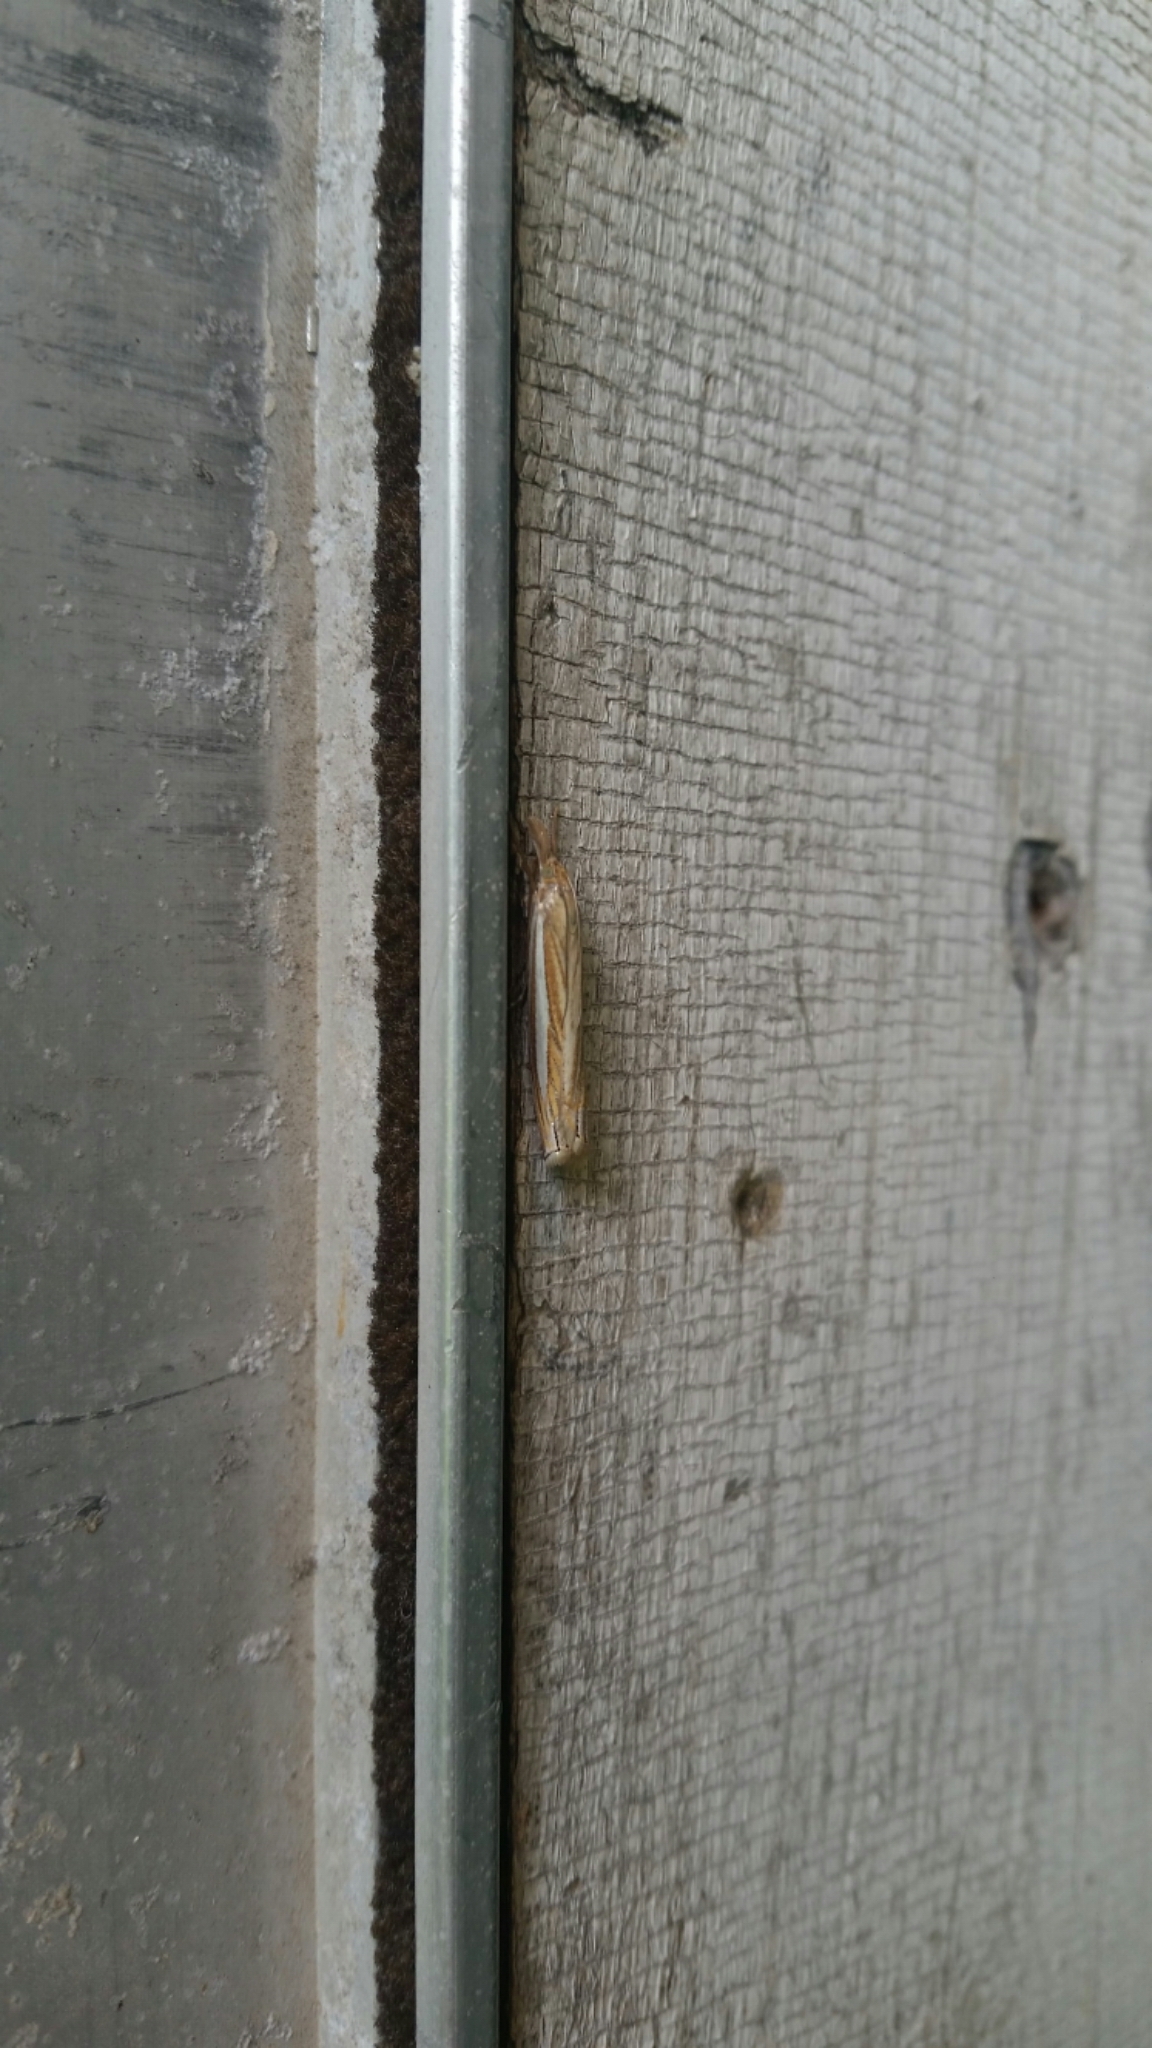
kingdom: Animalia
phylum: Arthropoda
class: Insecta
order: Lepidoptera
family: Crambidae
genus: Crambus
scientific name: Crambus laqueatellus
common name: Eastern grass-veneer
